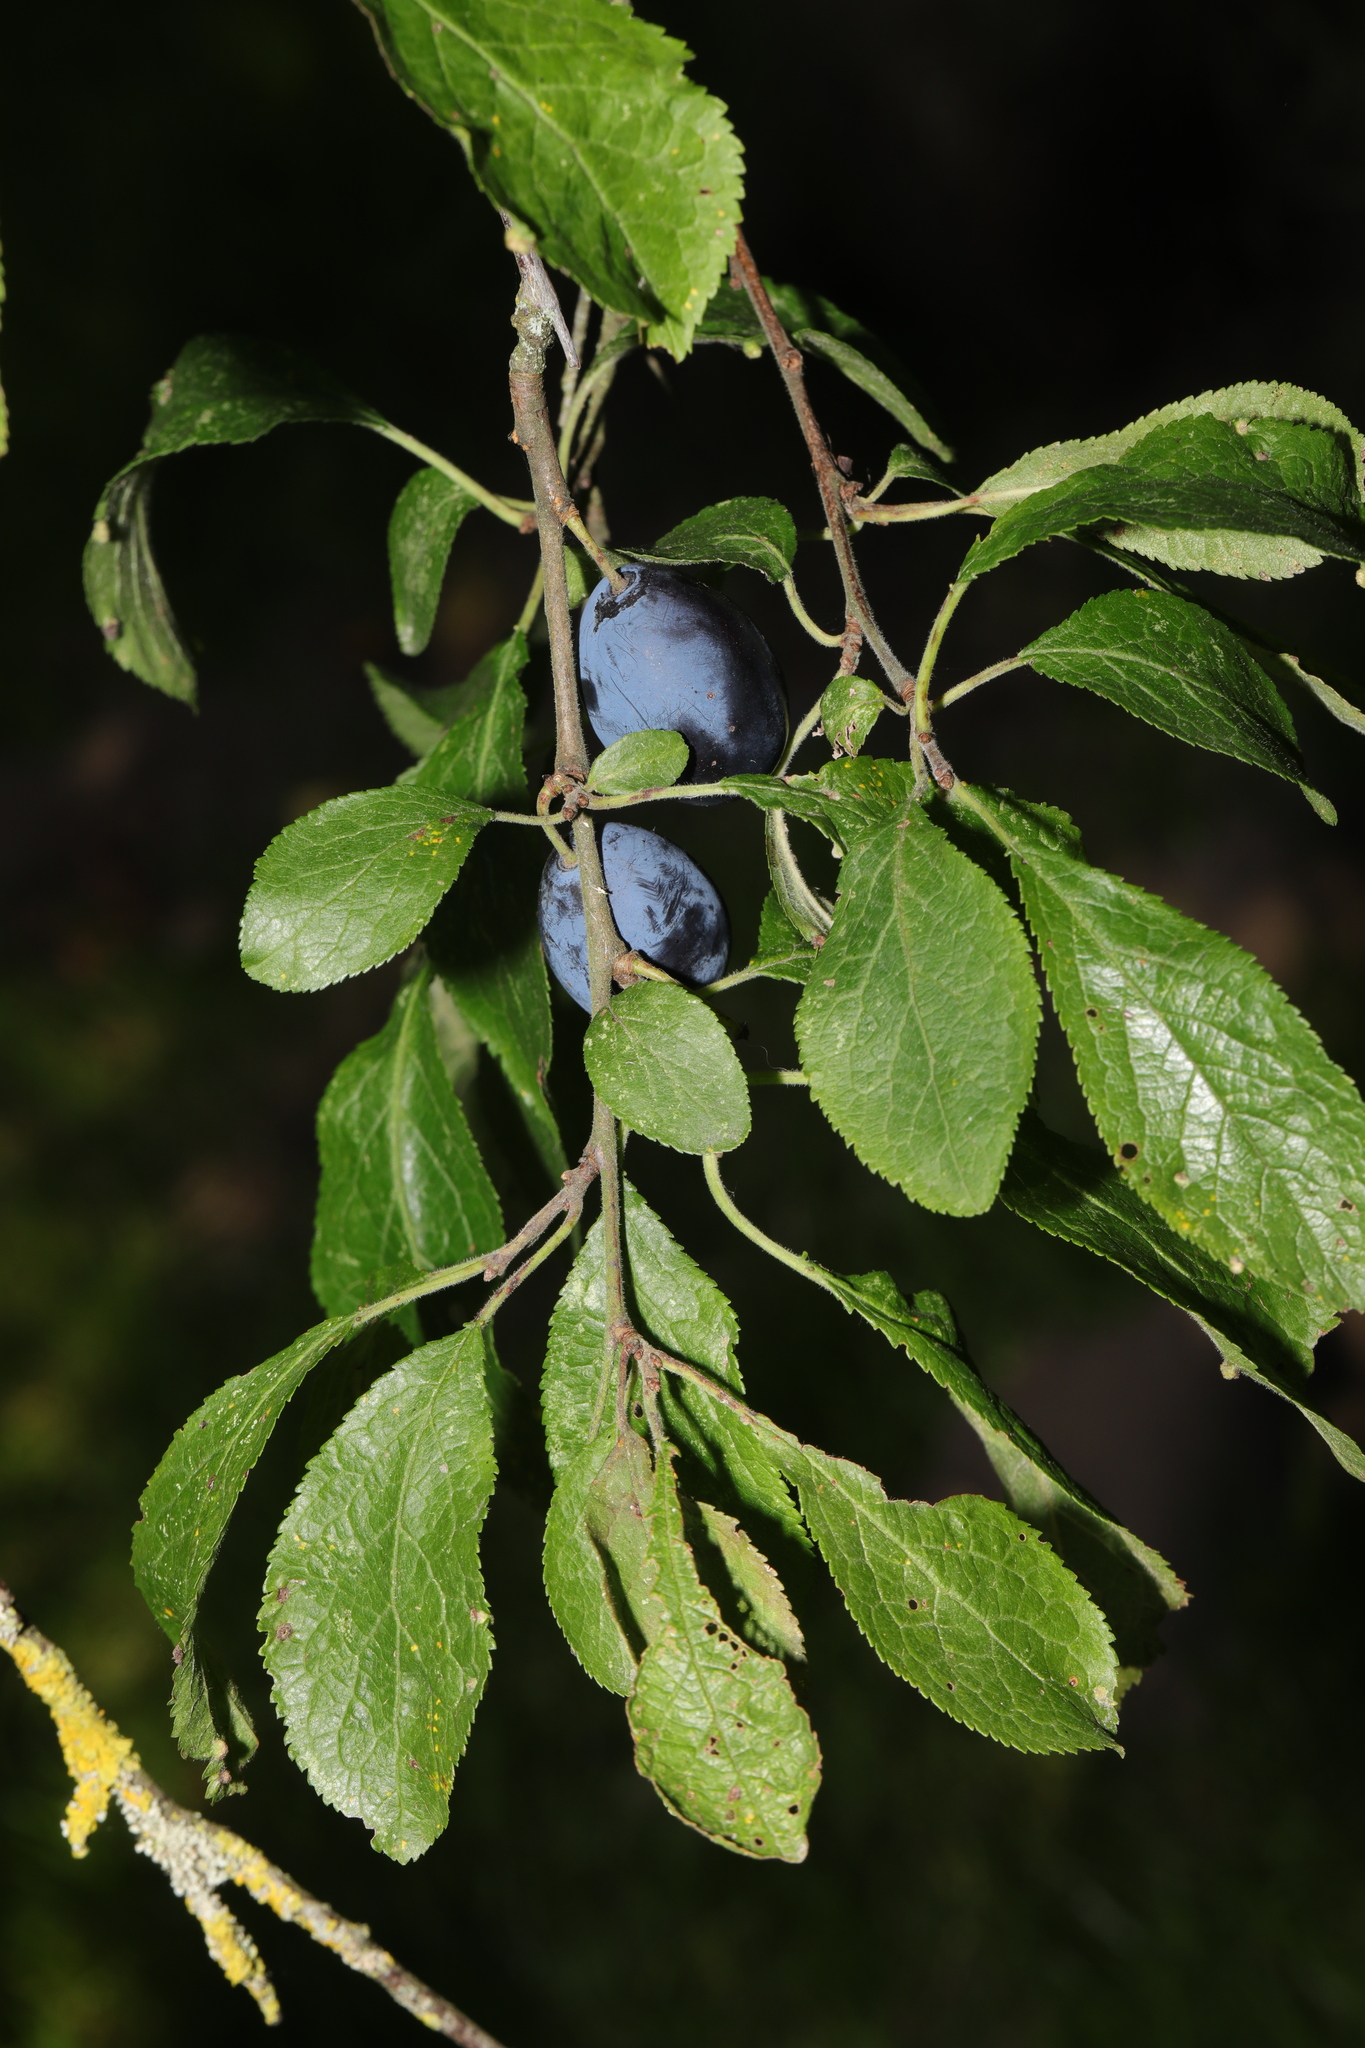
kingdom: Plantae
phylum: Tracheophyta
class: Magnoliopsida
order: Rosales
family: Rosaceae
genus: Prunus
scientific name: Prunus
